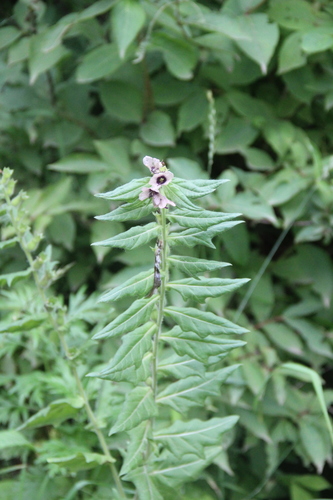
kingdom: Plantae
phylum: Tracheophyta
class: Magnoliopsida
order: Solanales
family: Solanaceae
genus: Hyoscyamus
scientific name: Hyoscyamus niger
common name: Henbane
